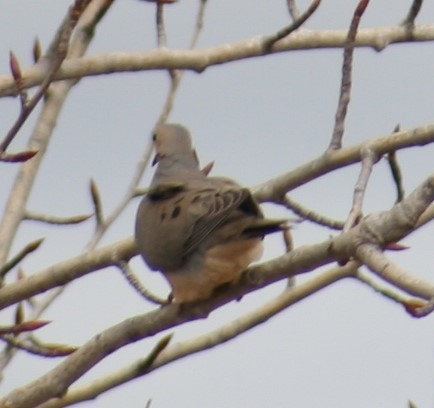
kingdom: Animalia
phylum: Chordata
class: Aves
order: Columbiformes
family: Columbidae
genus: Zenaida
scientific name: Zenaida macroura
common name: Mourning dove
